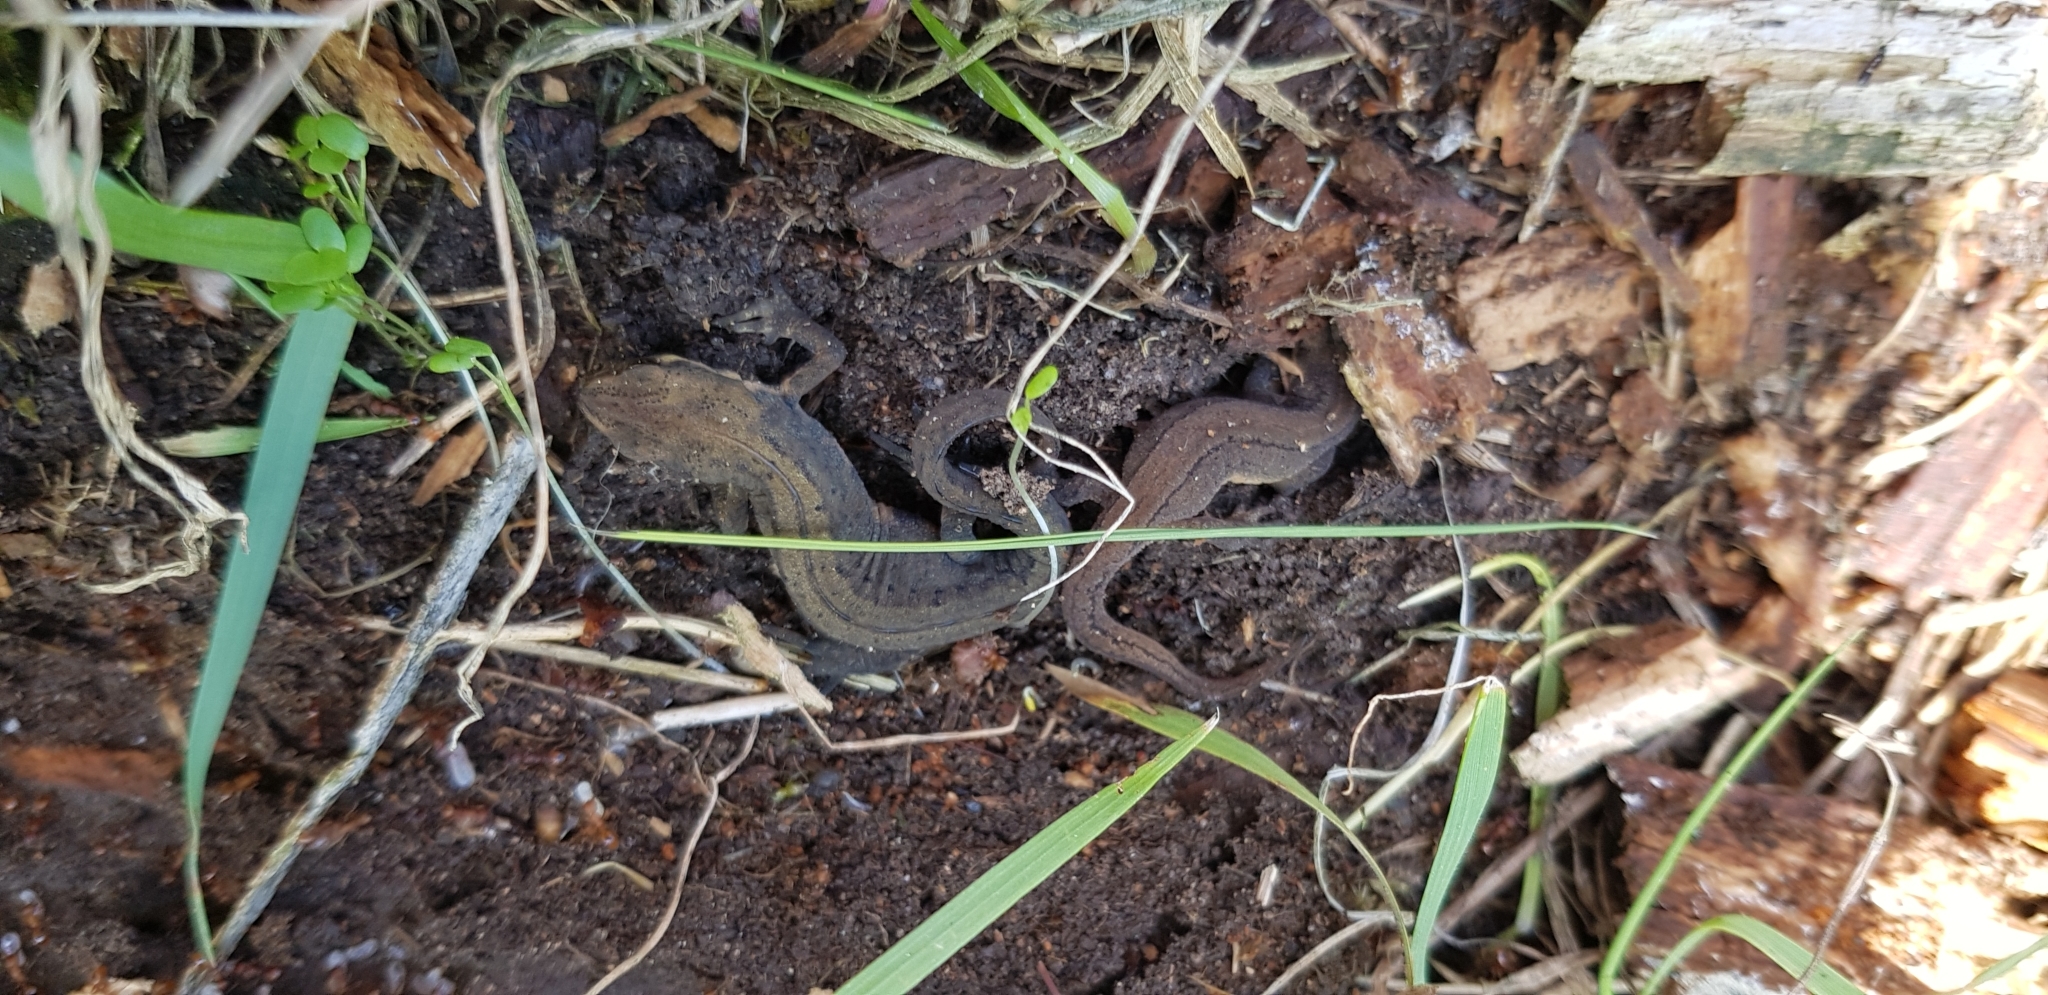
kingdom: Animalia
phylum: Chordata
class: Amphibia
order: Caudata
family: Salamandridae
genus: Lissotriton
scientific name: Lissotriton vulgaris
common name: Smooth newt
